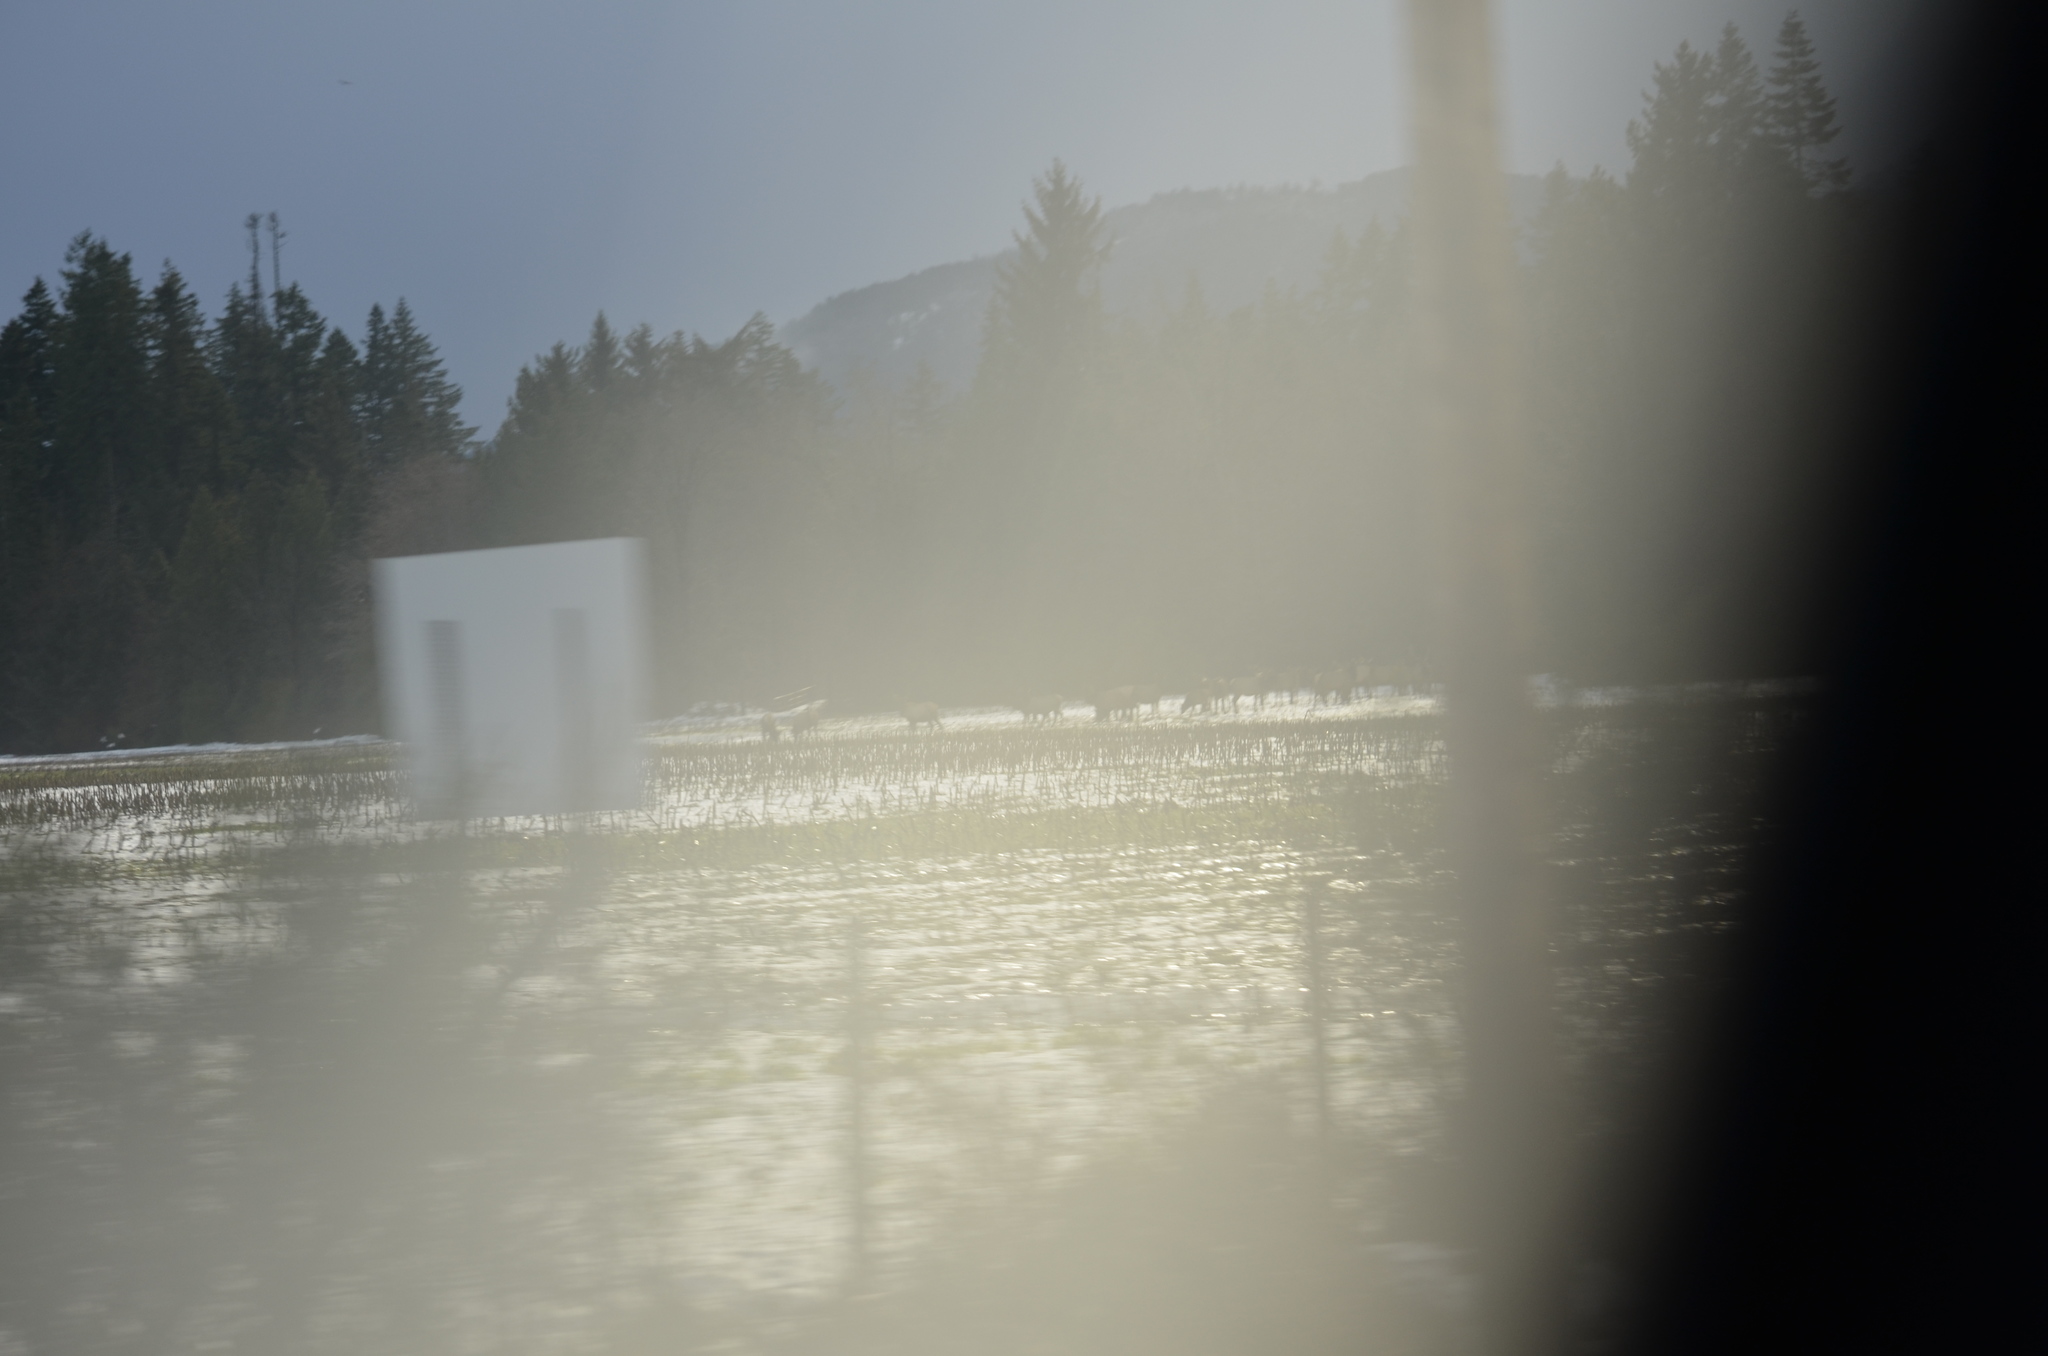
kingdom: Animalia
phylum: Chordata
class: Mammalia
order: Artiodactyla
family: Cervidae
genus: Cervus
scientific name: Cervus elaphus
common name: Red deer
